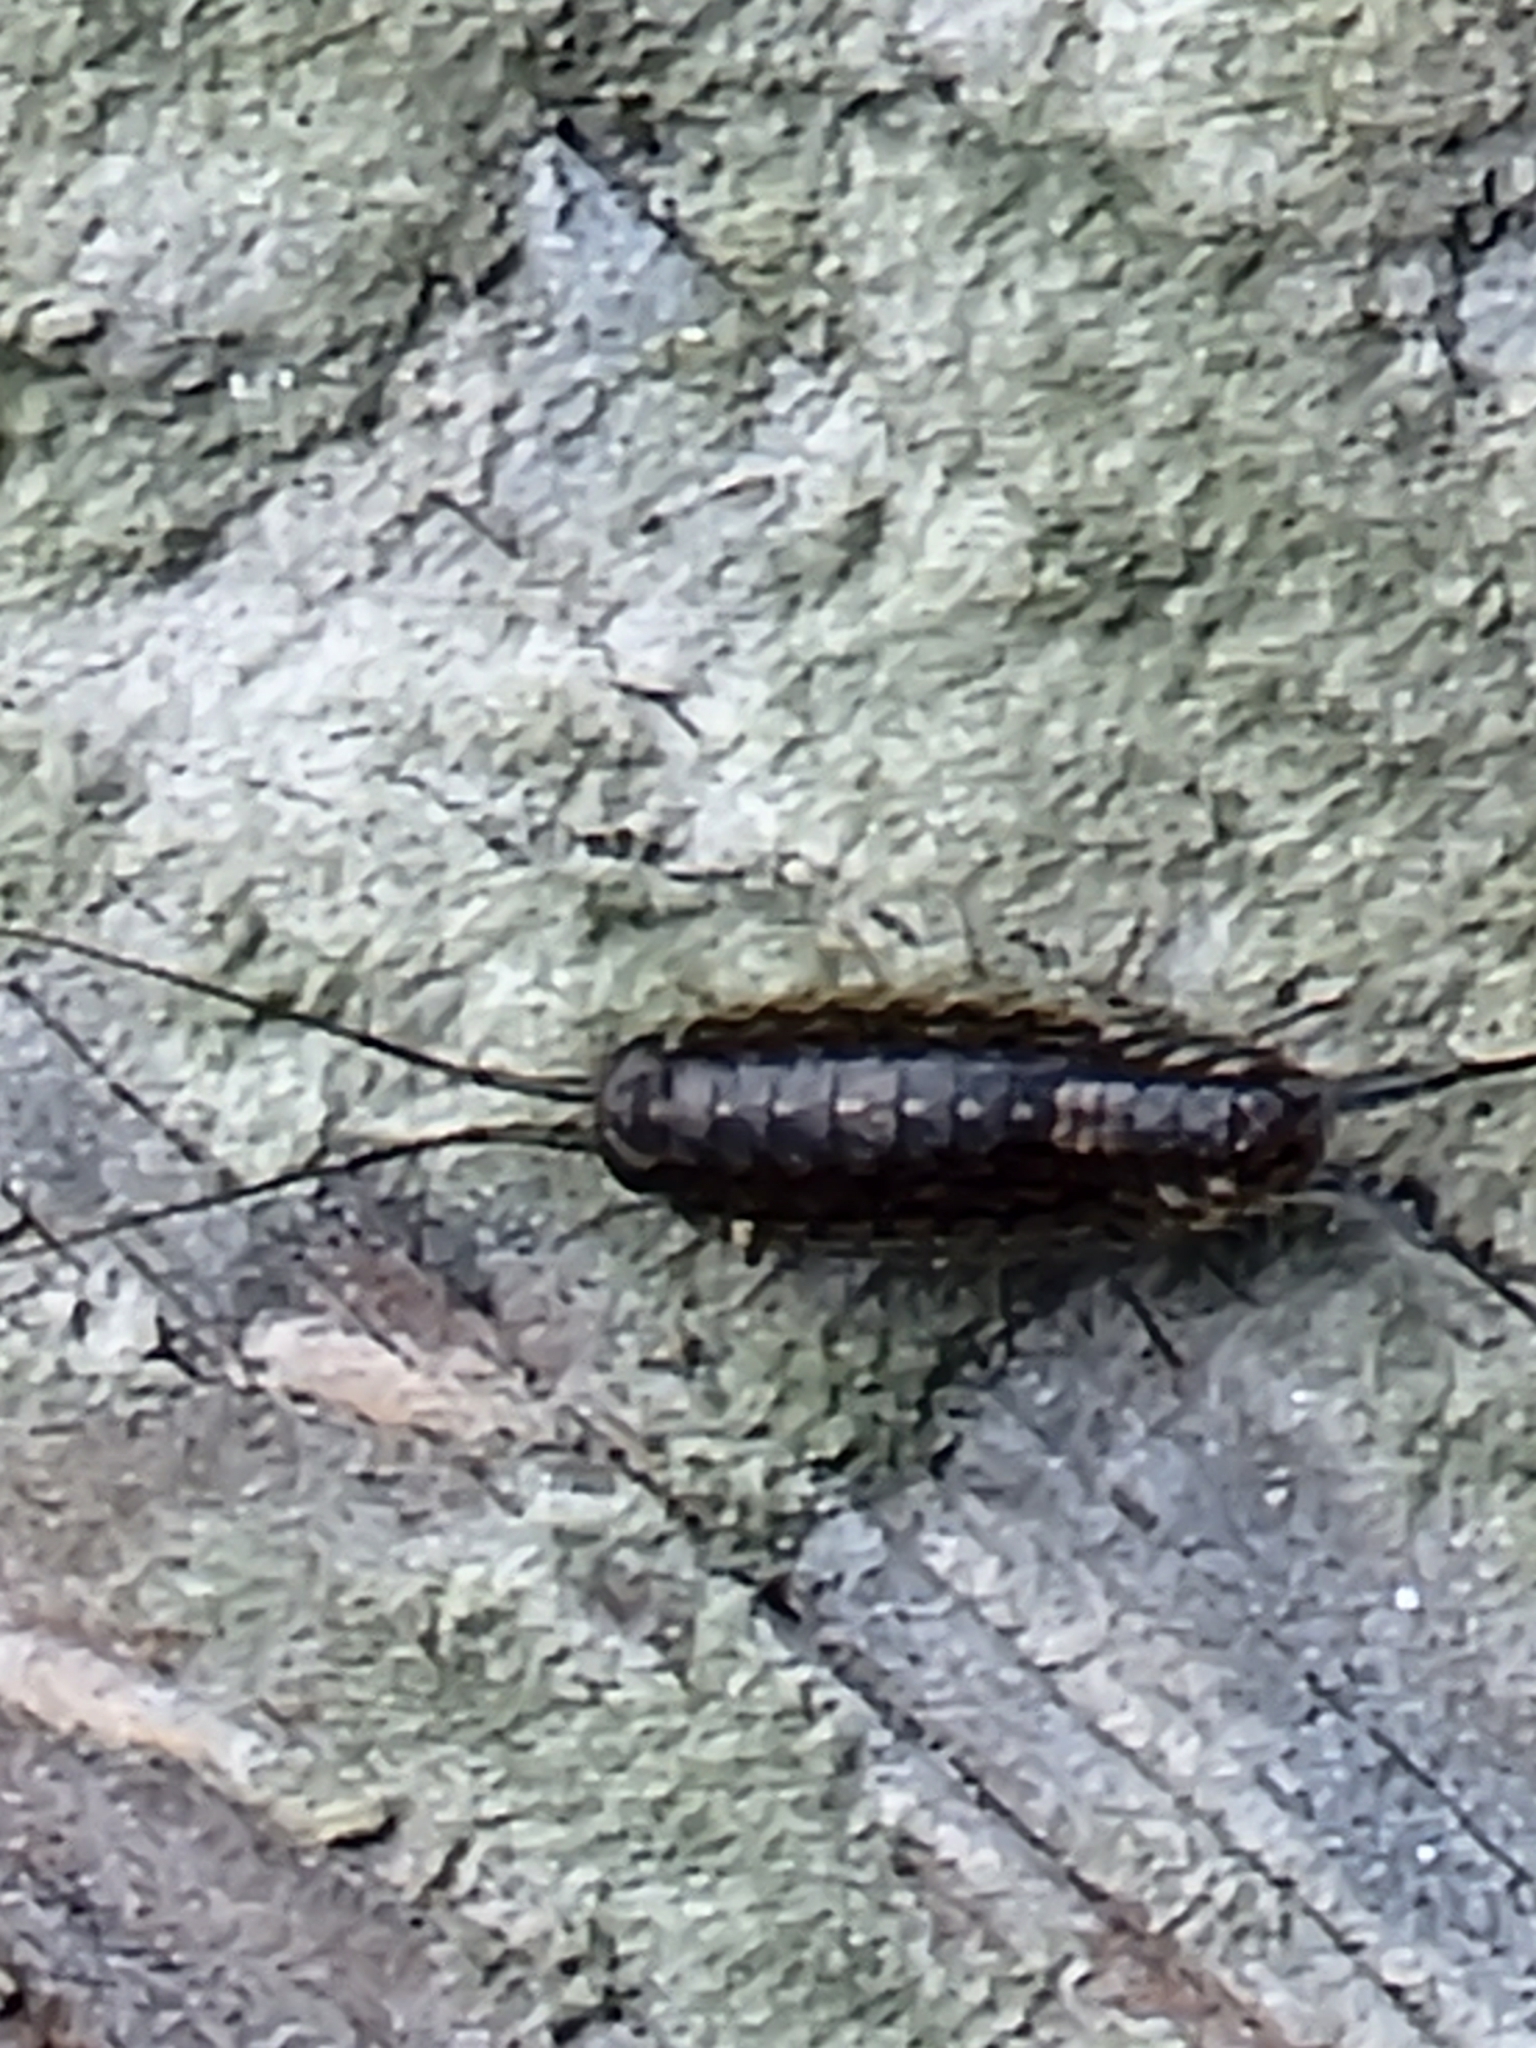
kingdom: Animalia
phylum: Arthropoda
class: Malacostraca
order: Isopoda
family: Ligiidae
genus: Ligia
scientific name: Ligia exotica
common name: Wharf roach
